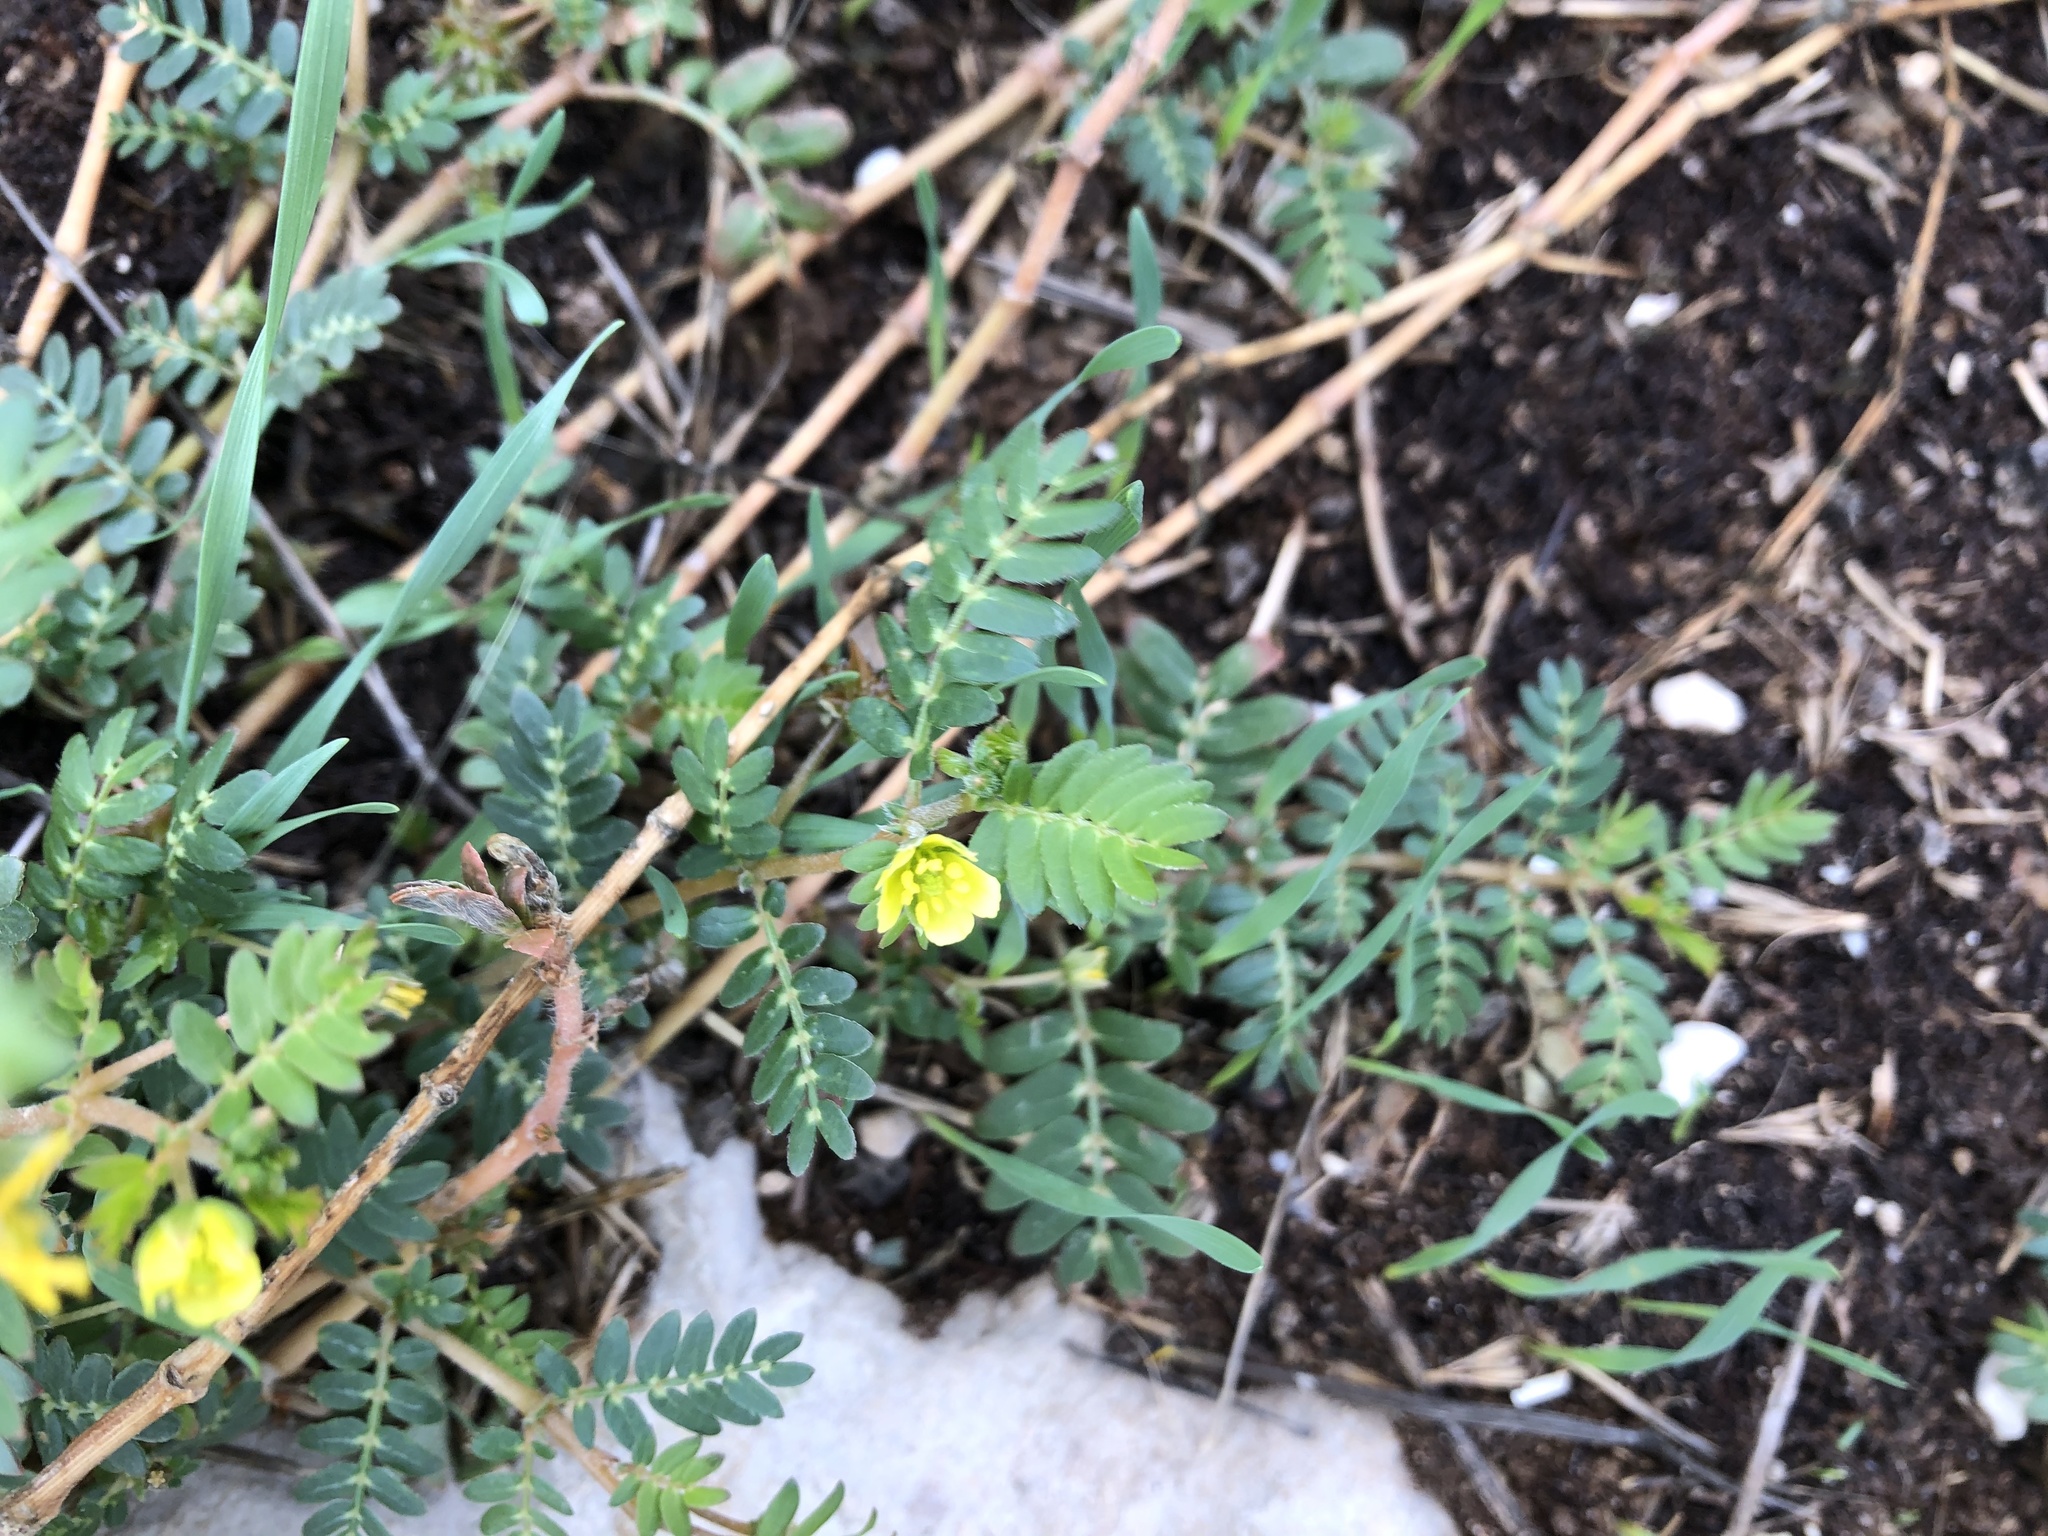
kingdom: Plantae
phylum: Tracheophyta
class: Magnoliopsida
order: Zygophyllales
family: Zygophyllaceae
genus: Tribulus
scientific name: Tribulus terrestris
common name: Puncturevine
